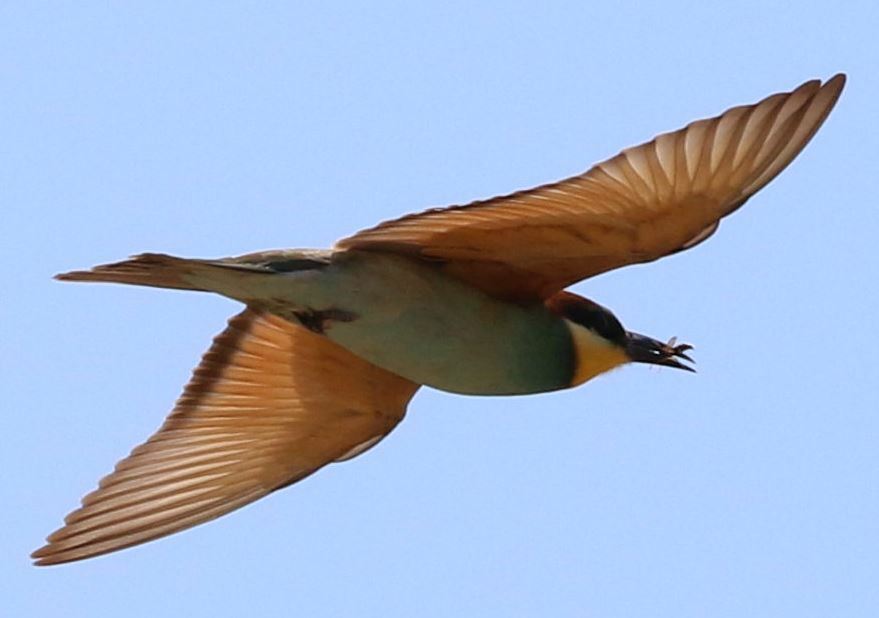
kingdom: Animalia
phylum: Chordata
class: Aves
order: Coraciiformes
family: Meropidae
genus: Merops
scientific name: Merops apiaster
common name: European bee-eater
